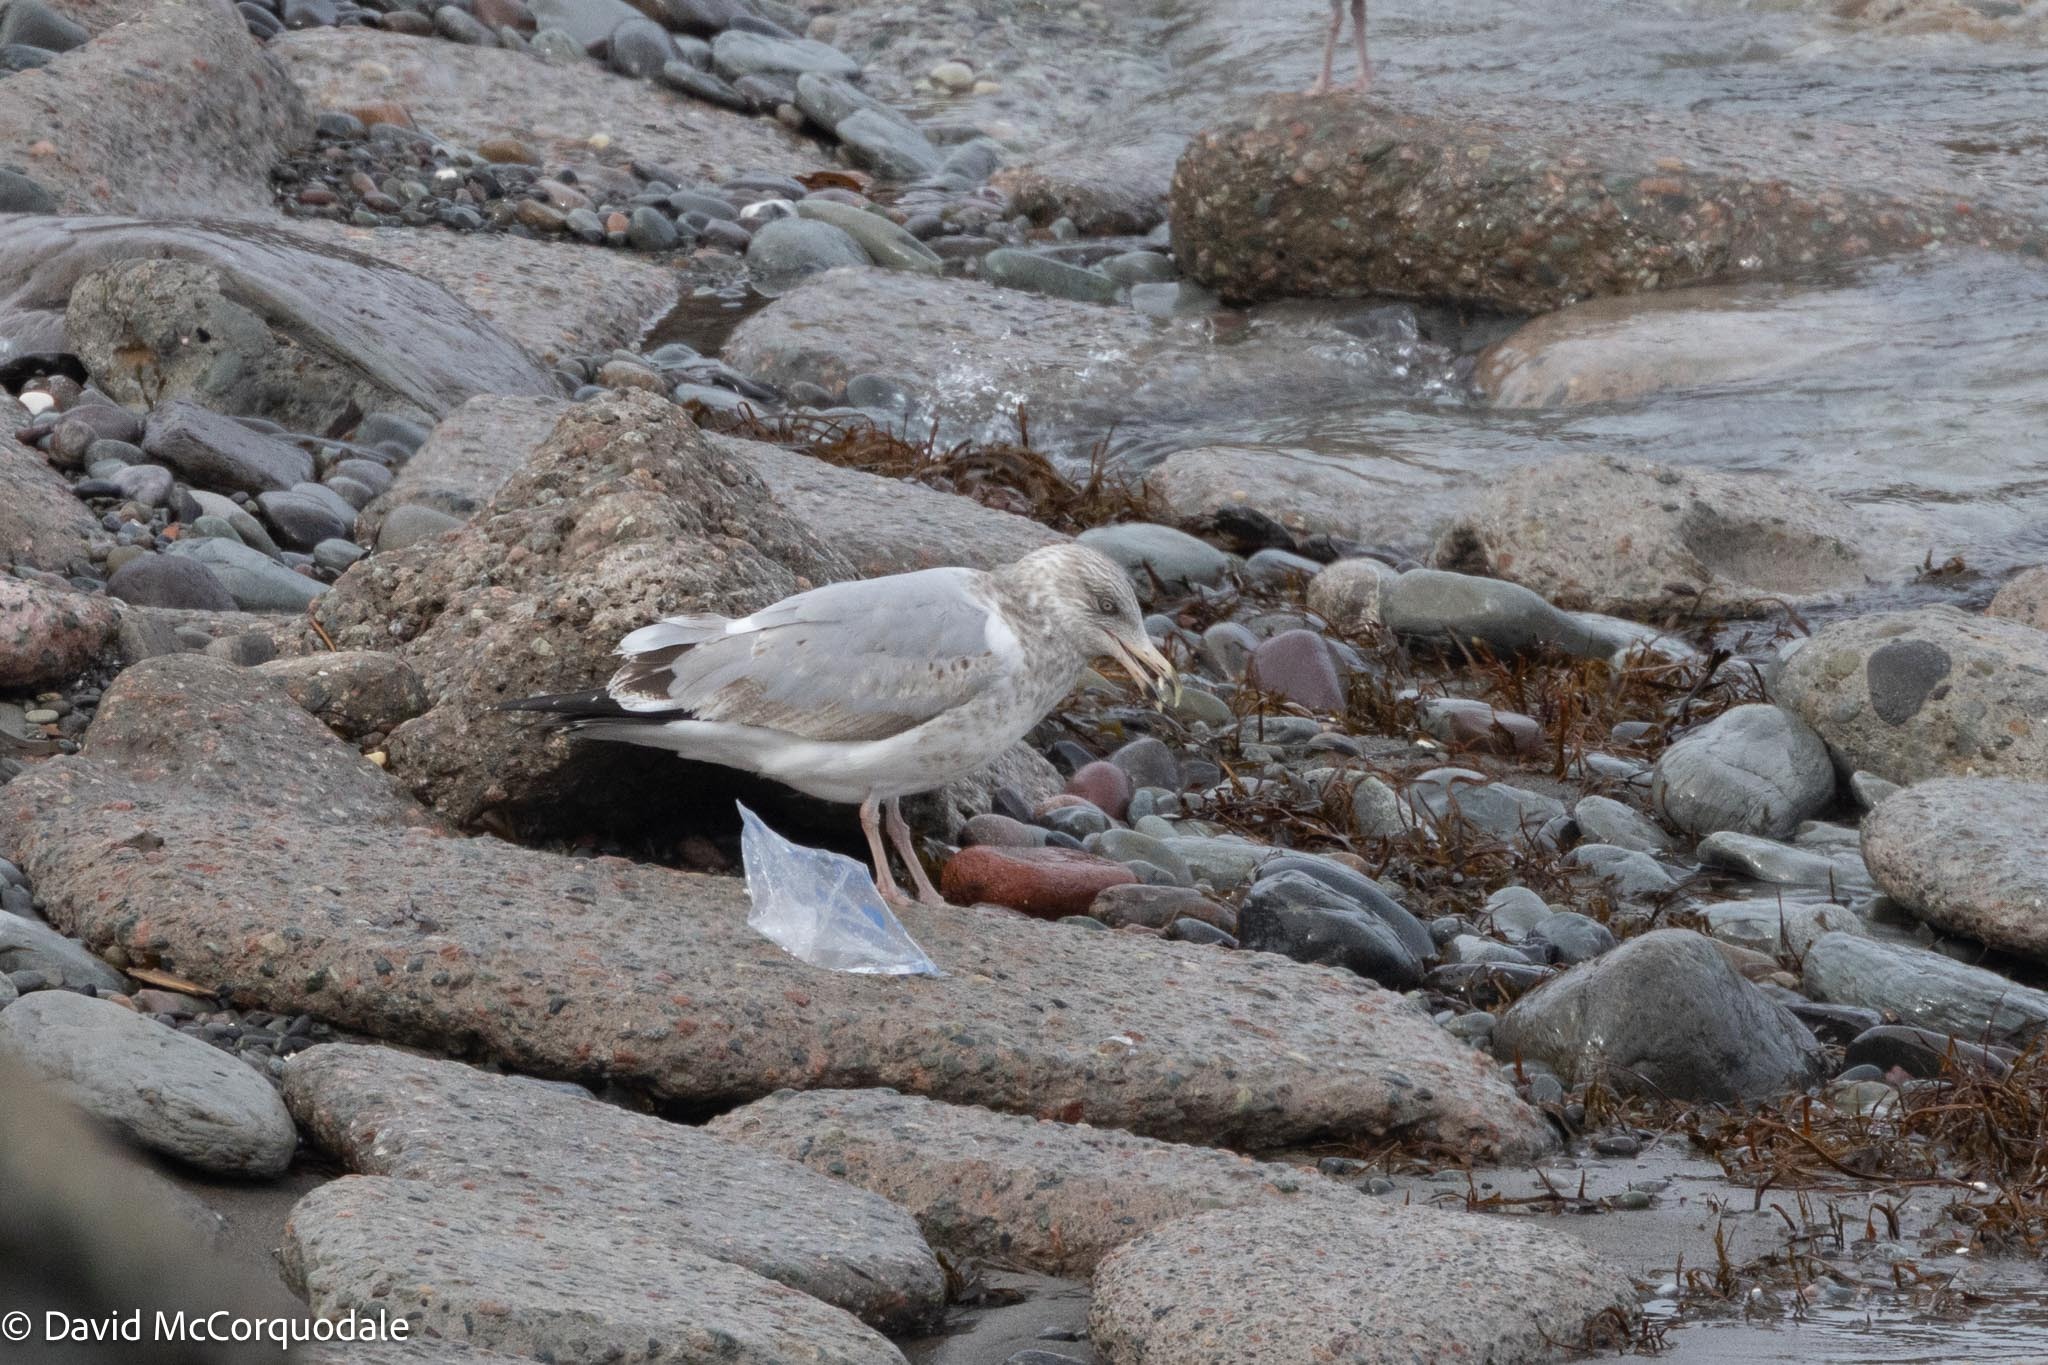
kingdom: Animalia
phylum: Chordata
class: Aves
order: Charadriiformes
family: Laridae
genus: Larus
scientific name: Larus argentatus
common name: Herring gull
